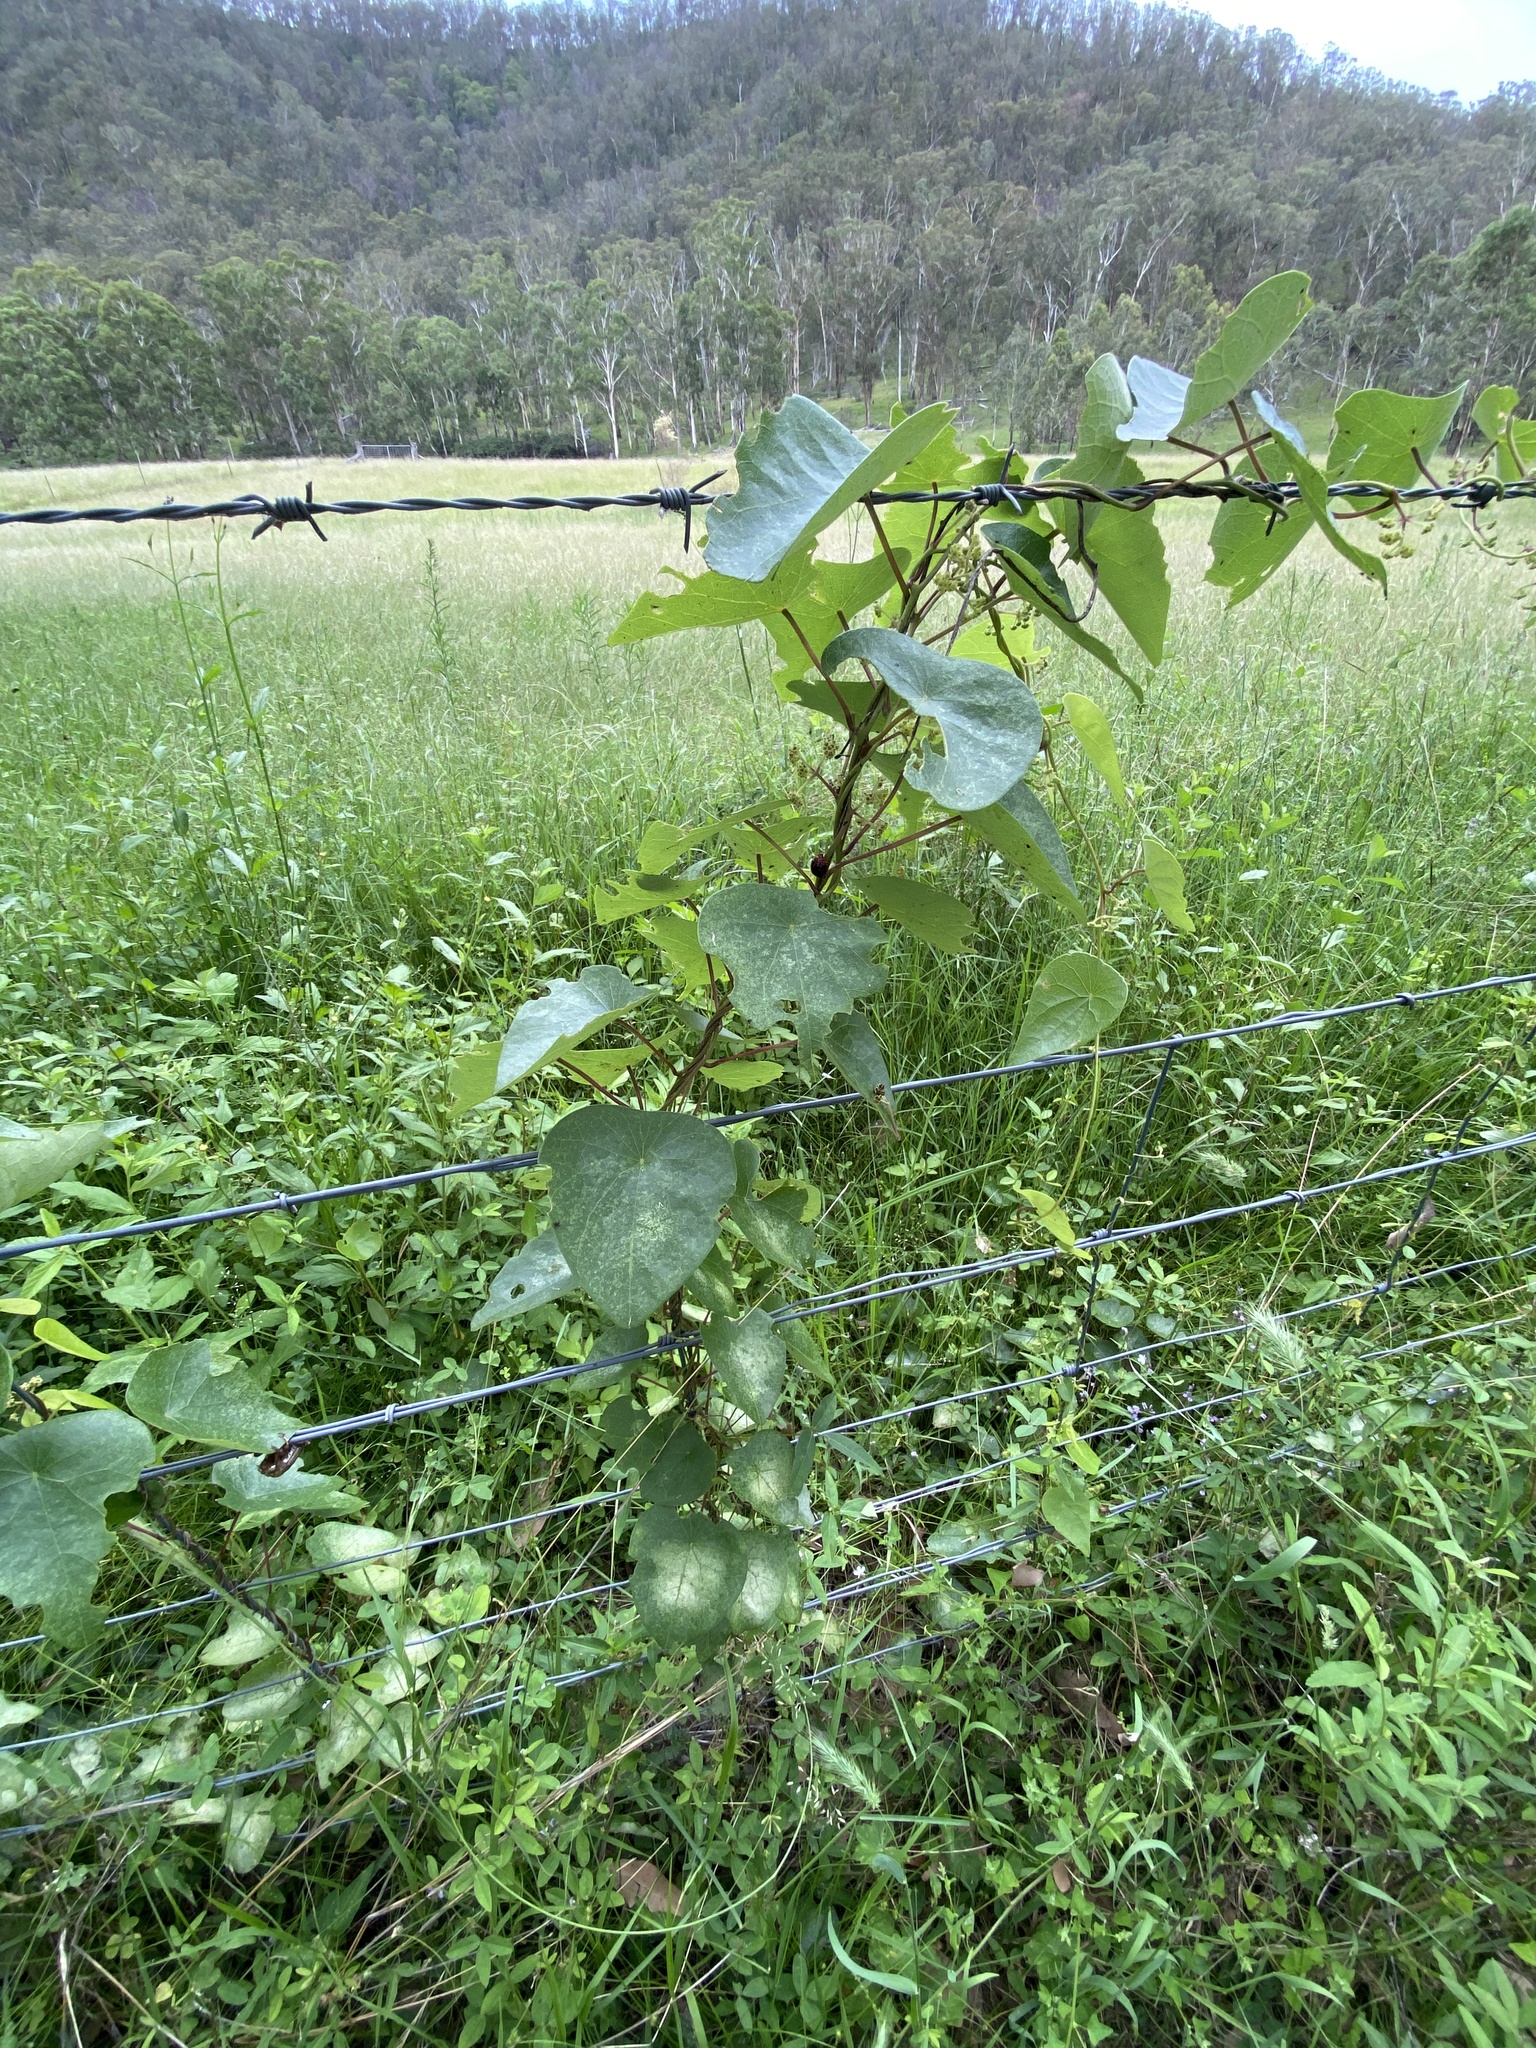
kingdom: Plantae
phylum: Tracheophyta
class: Magnoliopsida
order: Ranunculales
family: Menispermaceae
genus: Stephania
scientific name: Stephania japonica
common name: Snake vine
